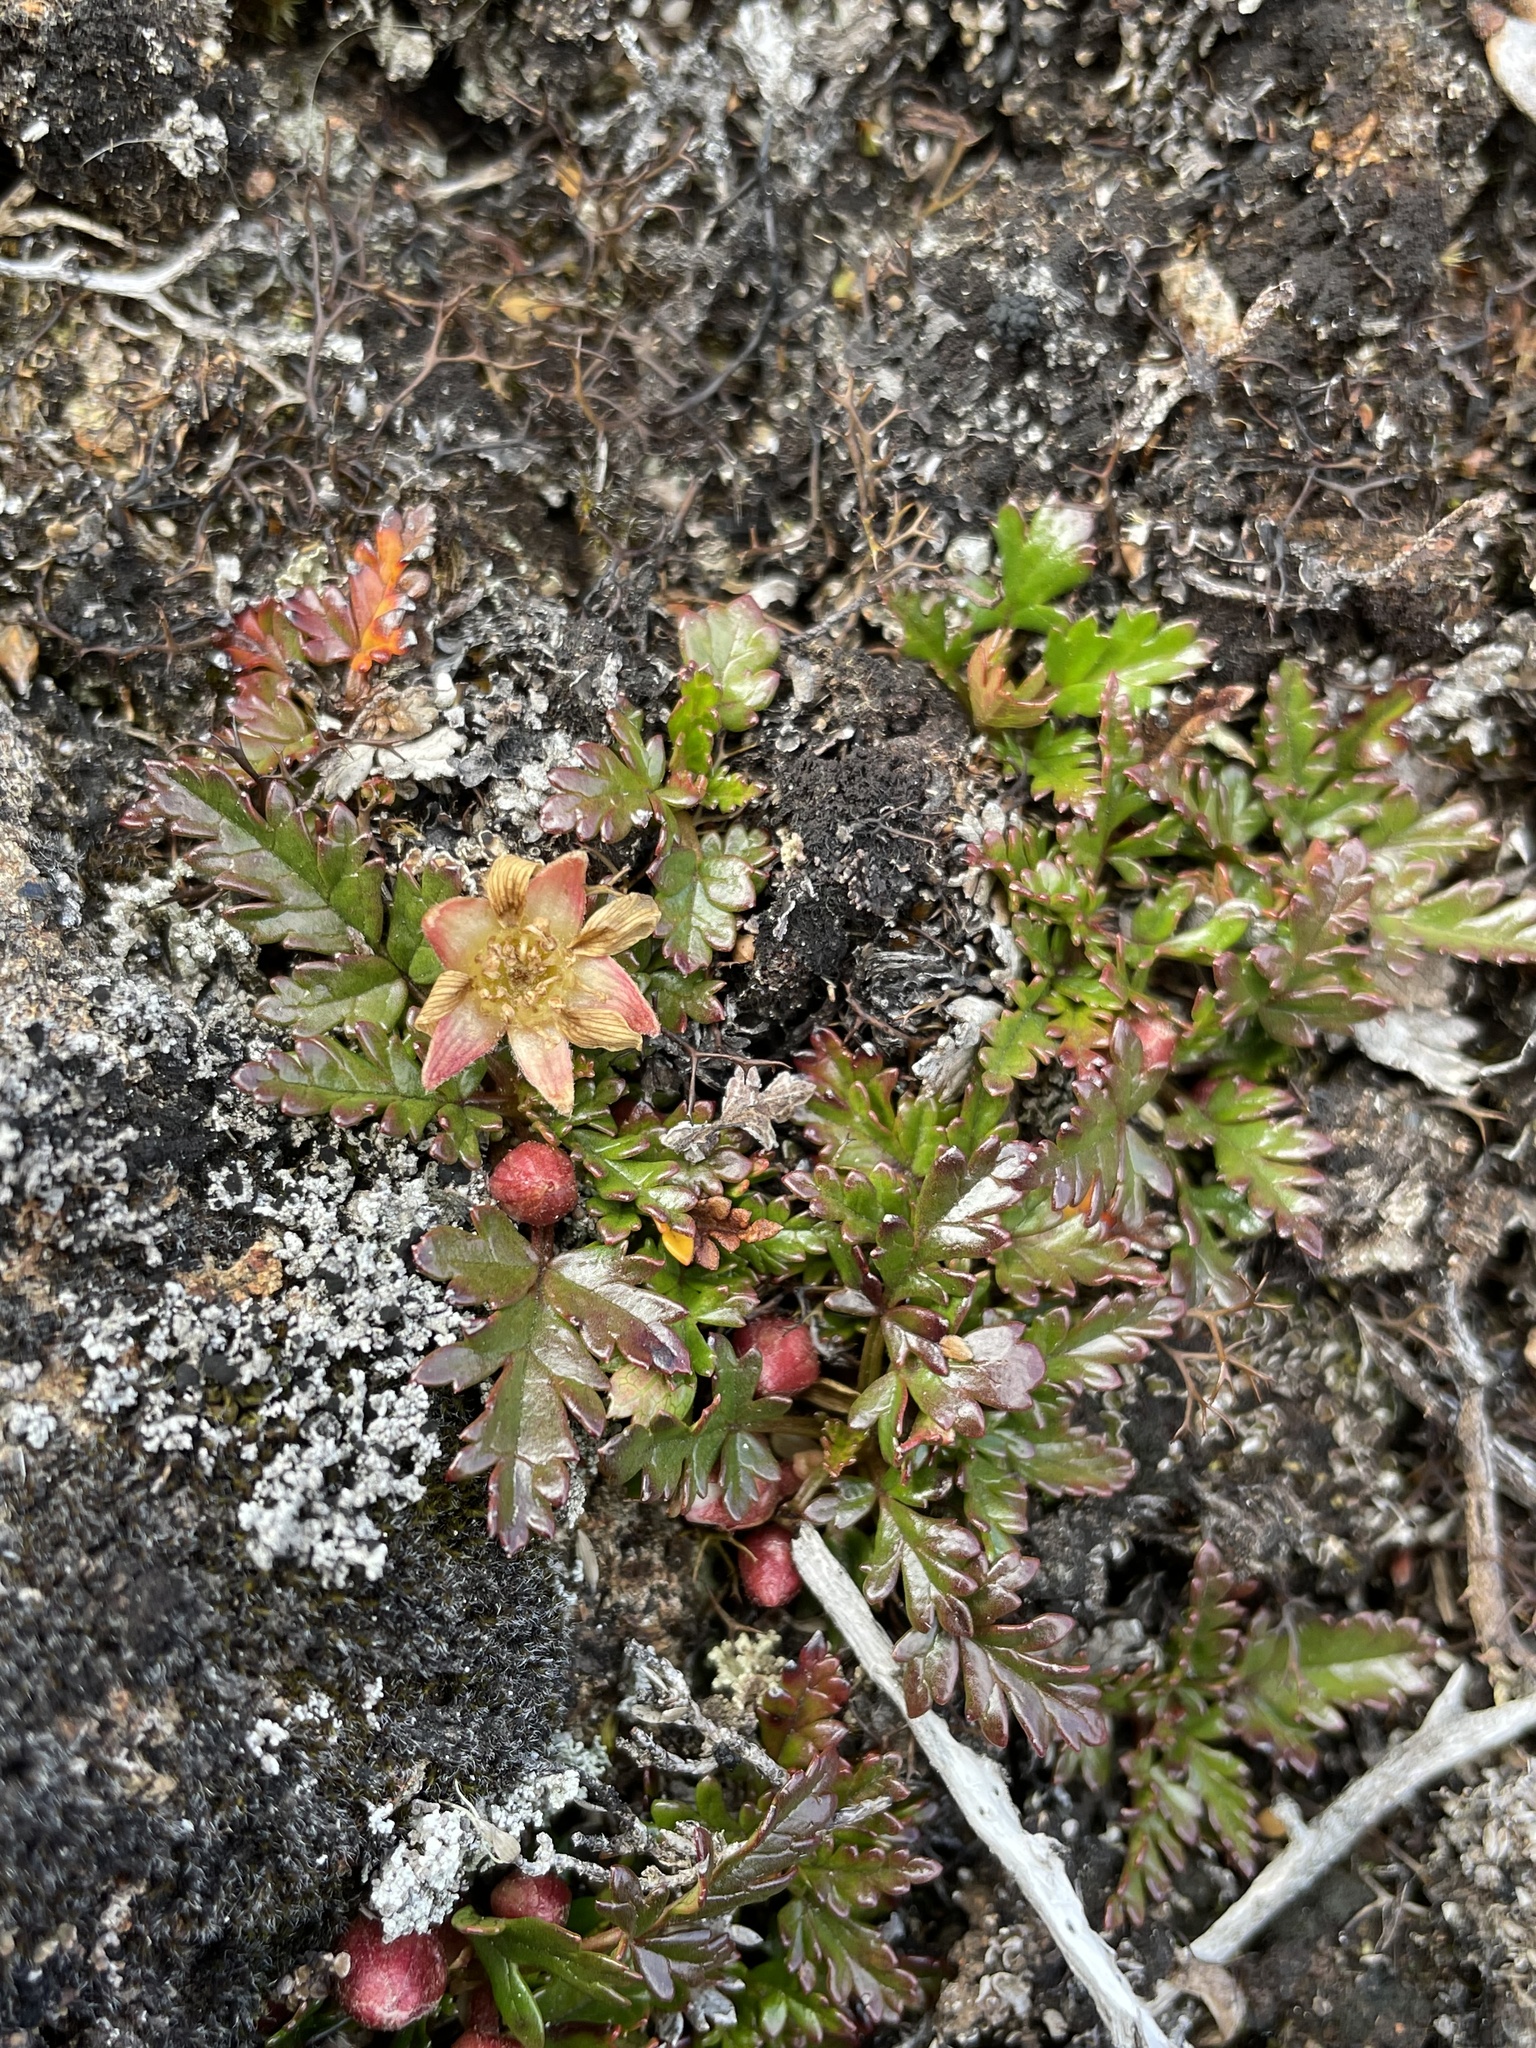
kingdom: Plantae
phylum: Tracheophyta
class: Magnoliopsida
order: Rosales
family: Rosaceae
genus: Rubus
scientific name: Rubus gunnianus
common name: Mountain raspberry
